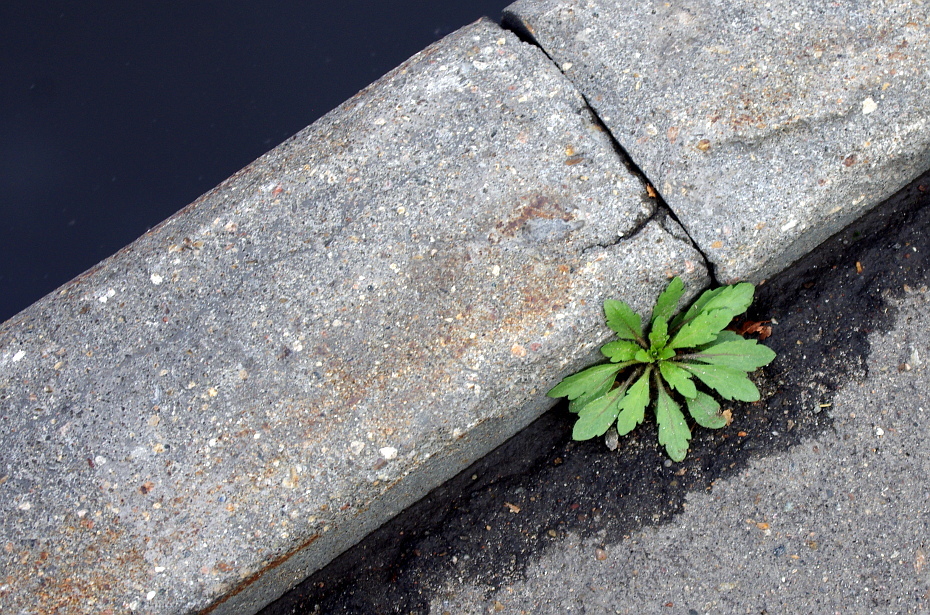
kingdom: Plantae
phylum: Tracheophyta
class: Magnoliopsida
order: Asterales
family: Asteraceae
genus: Erigeron
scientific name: Erigeron canadensis
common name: Canadian fleabane
